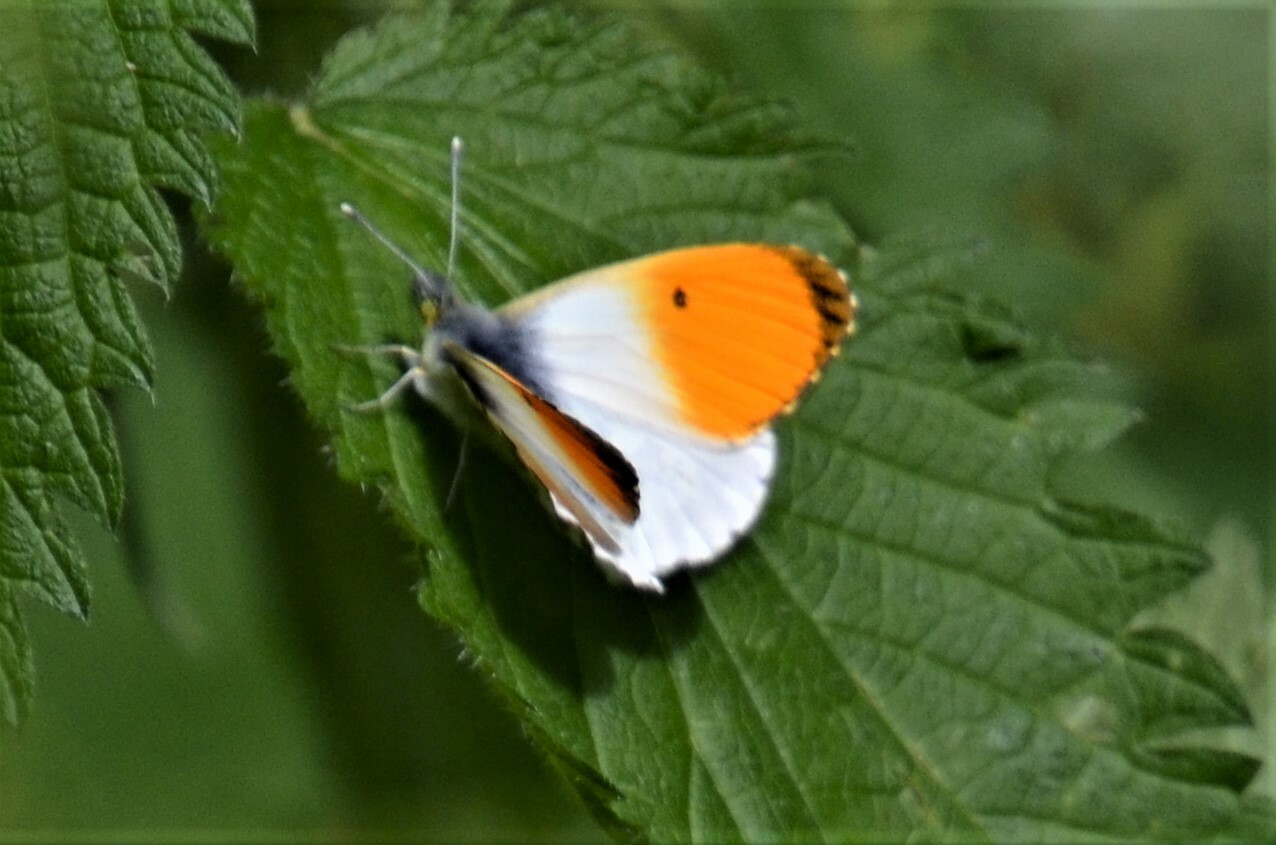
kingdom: Animalia
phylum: Arthropoda
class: Insecta
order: Lepidoptera
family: Pieridae
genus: Anthocharis
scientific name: Anthocharis cardamines
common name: Orange-tip
